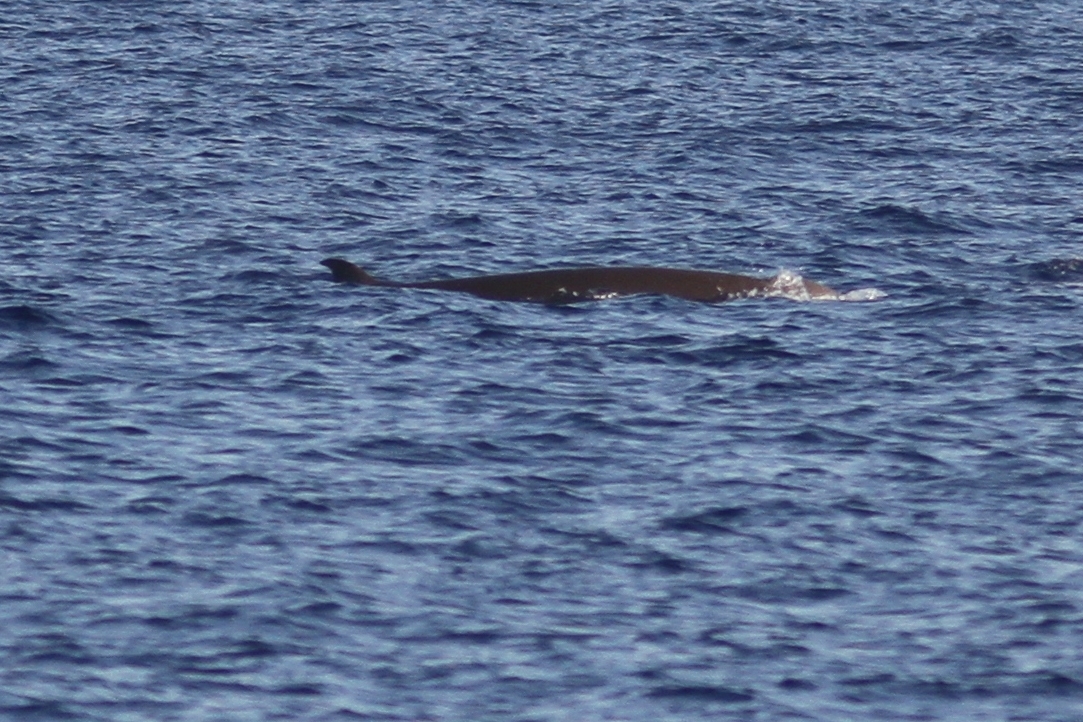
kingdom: Animalia
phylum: Chordata
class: Mammalia
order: Cetacea
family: Hyperoodontidae
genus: Ziphius
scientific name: Ziphius cavirostris
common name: Cuvier's beaked whale
